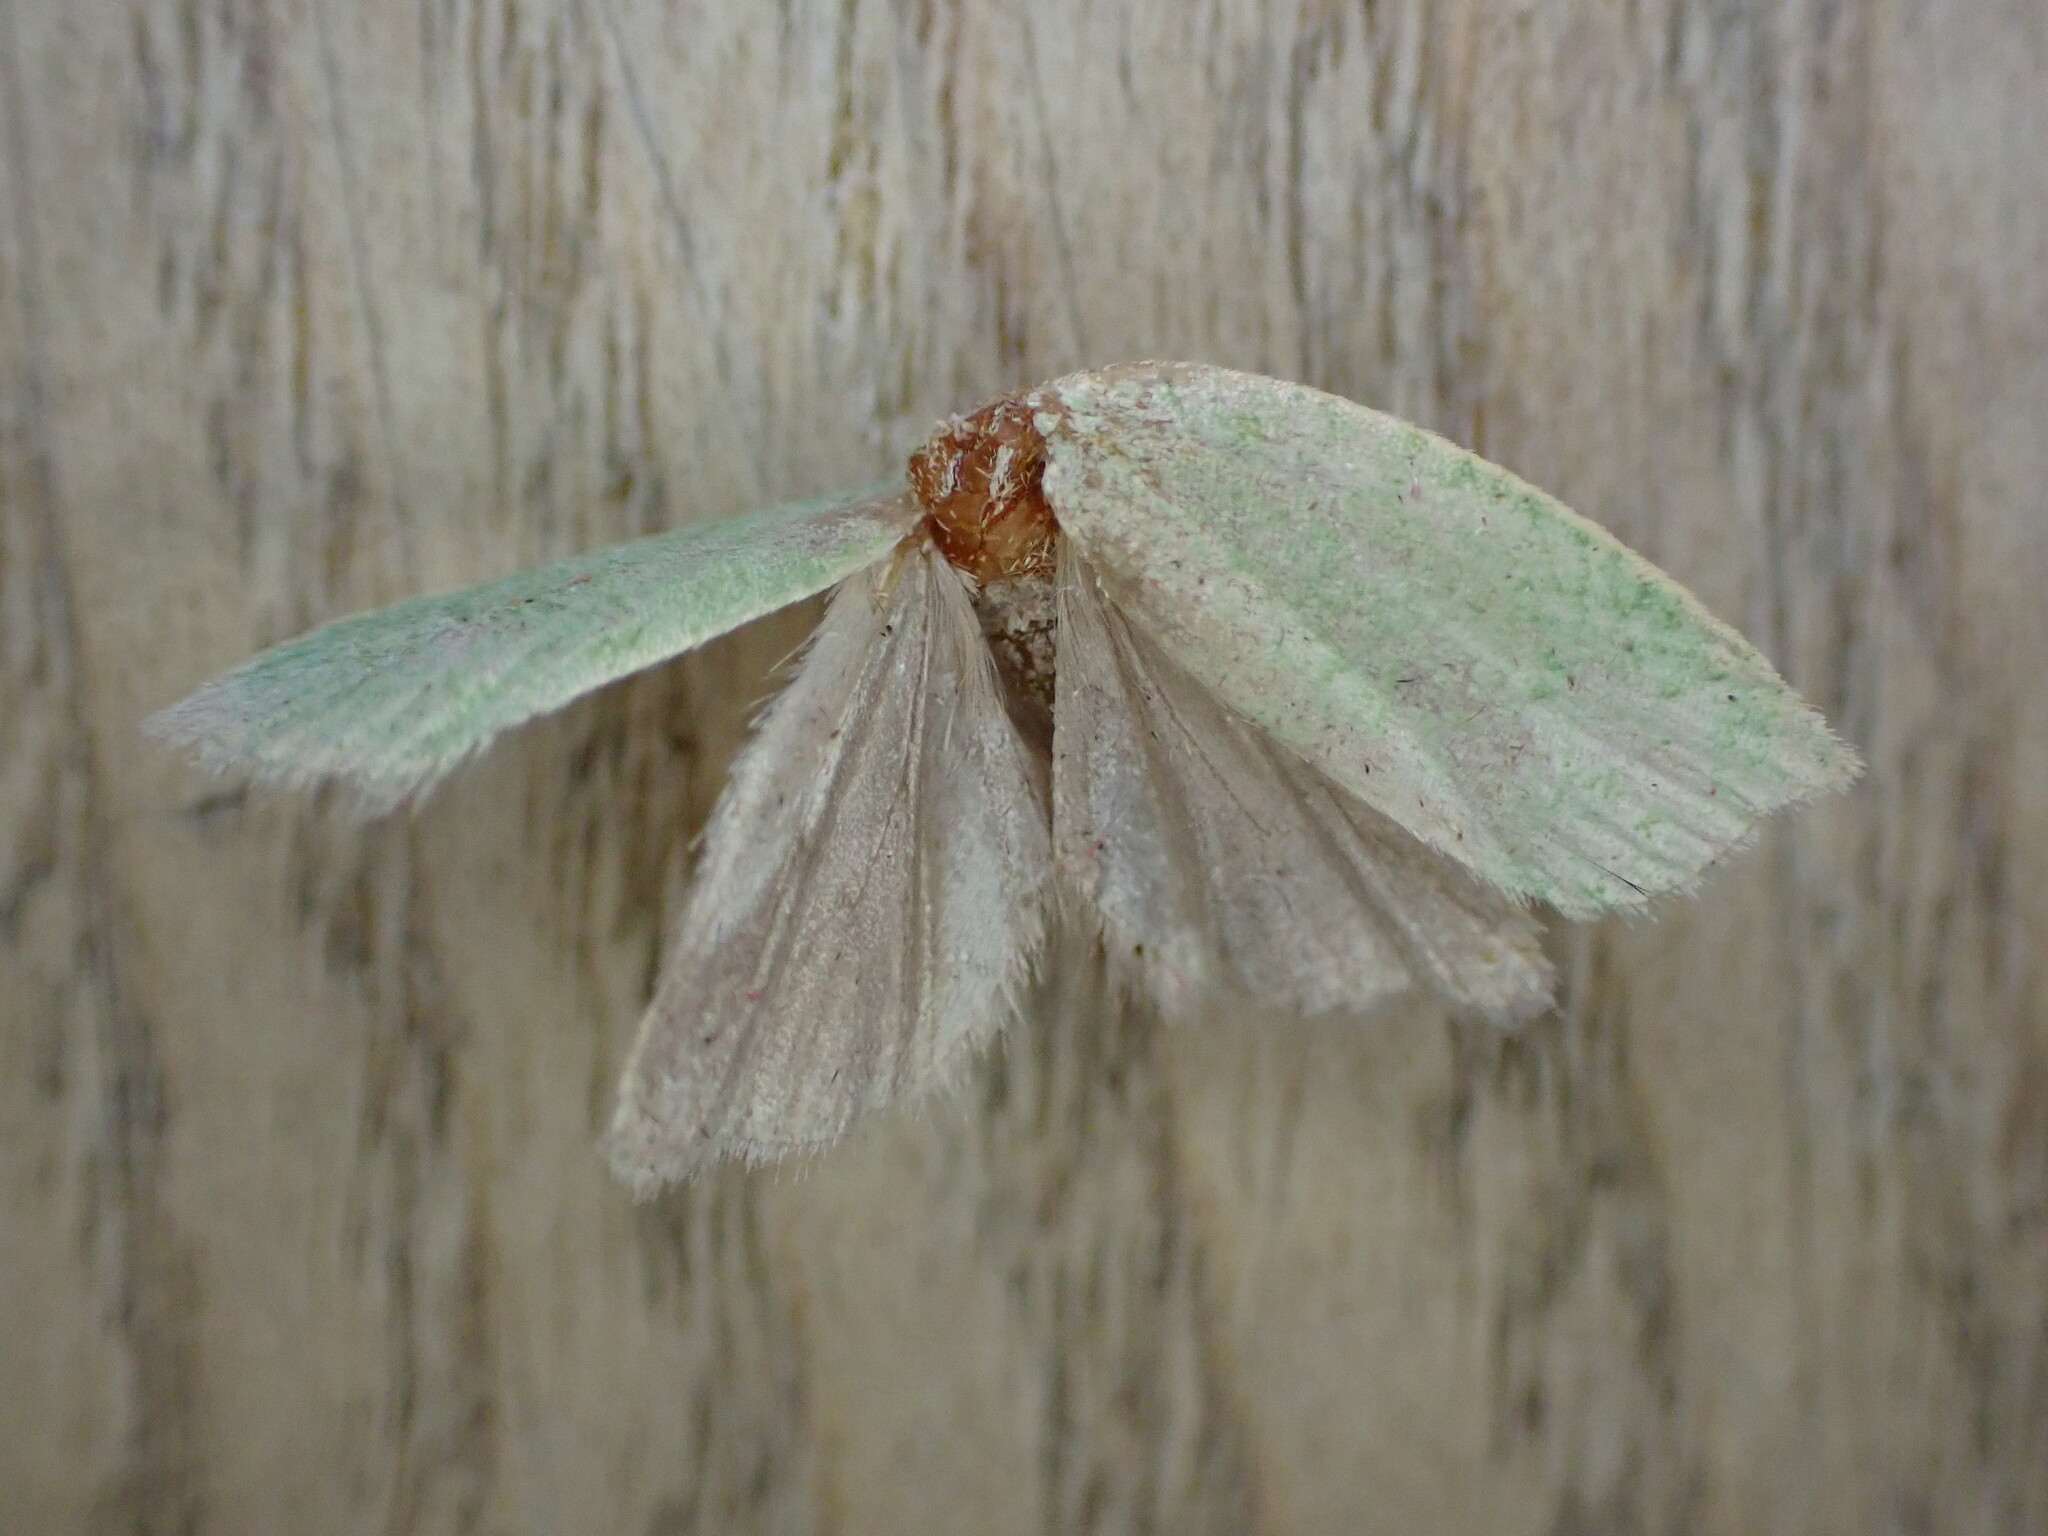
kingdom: Animalia
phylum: Arthropoda
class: Insecta
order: Lepidoptera
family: Tortricidae
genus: Tortrix
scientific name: Tortrix viridana
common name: Green oak tortrix
